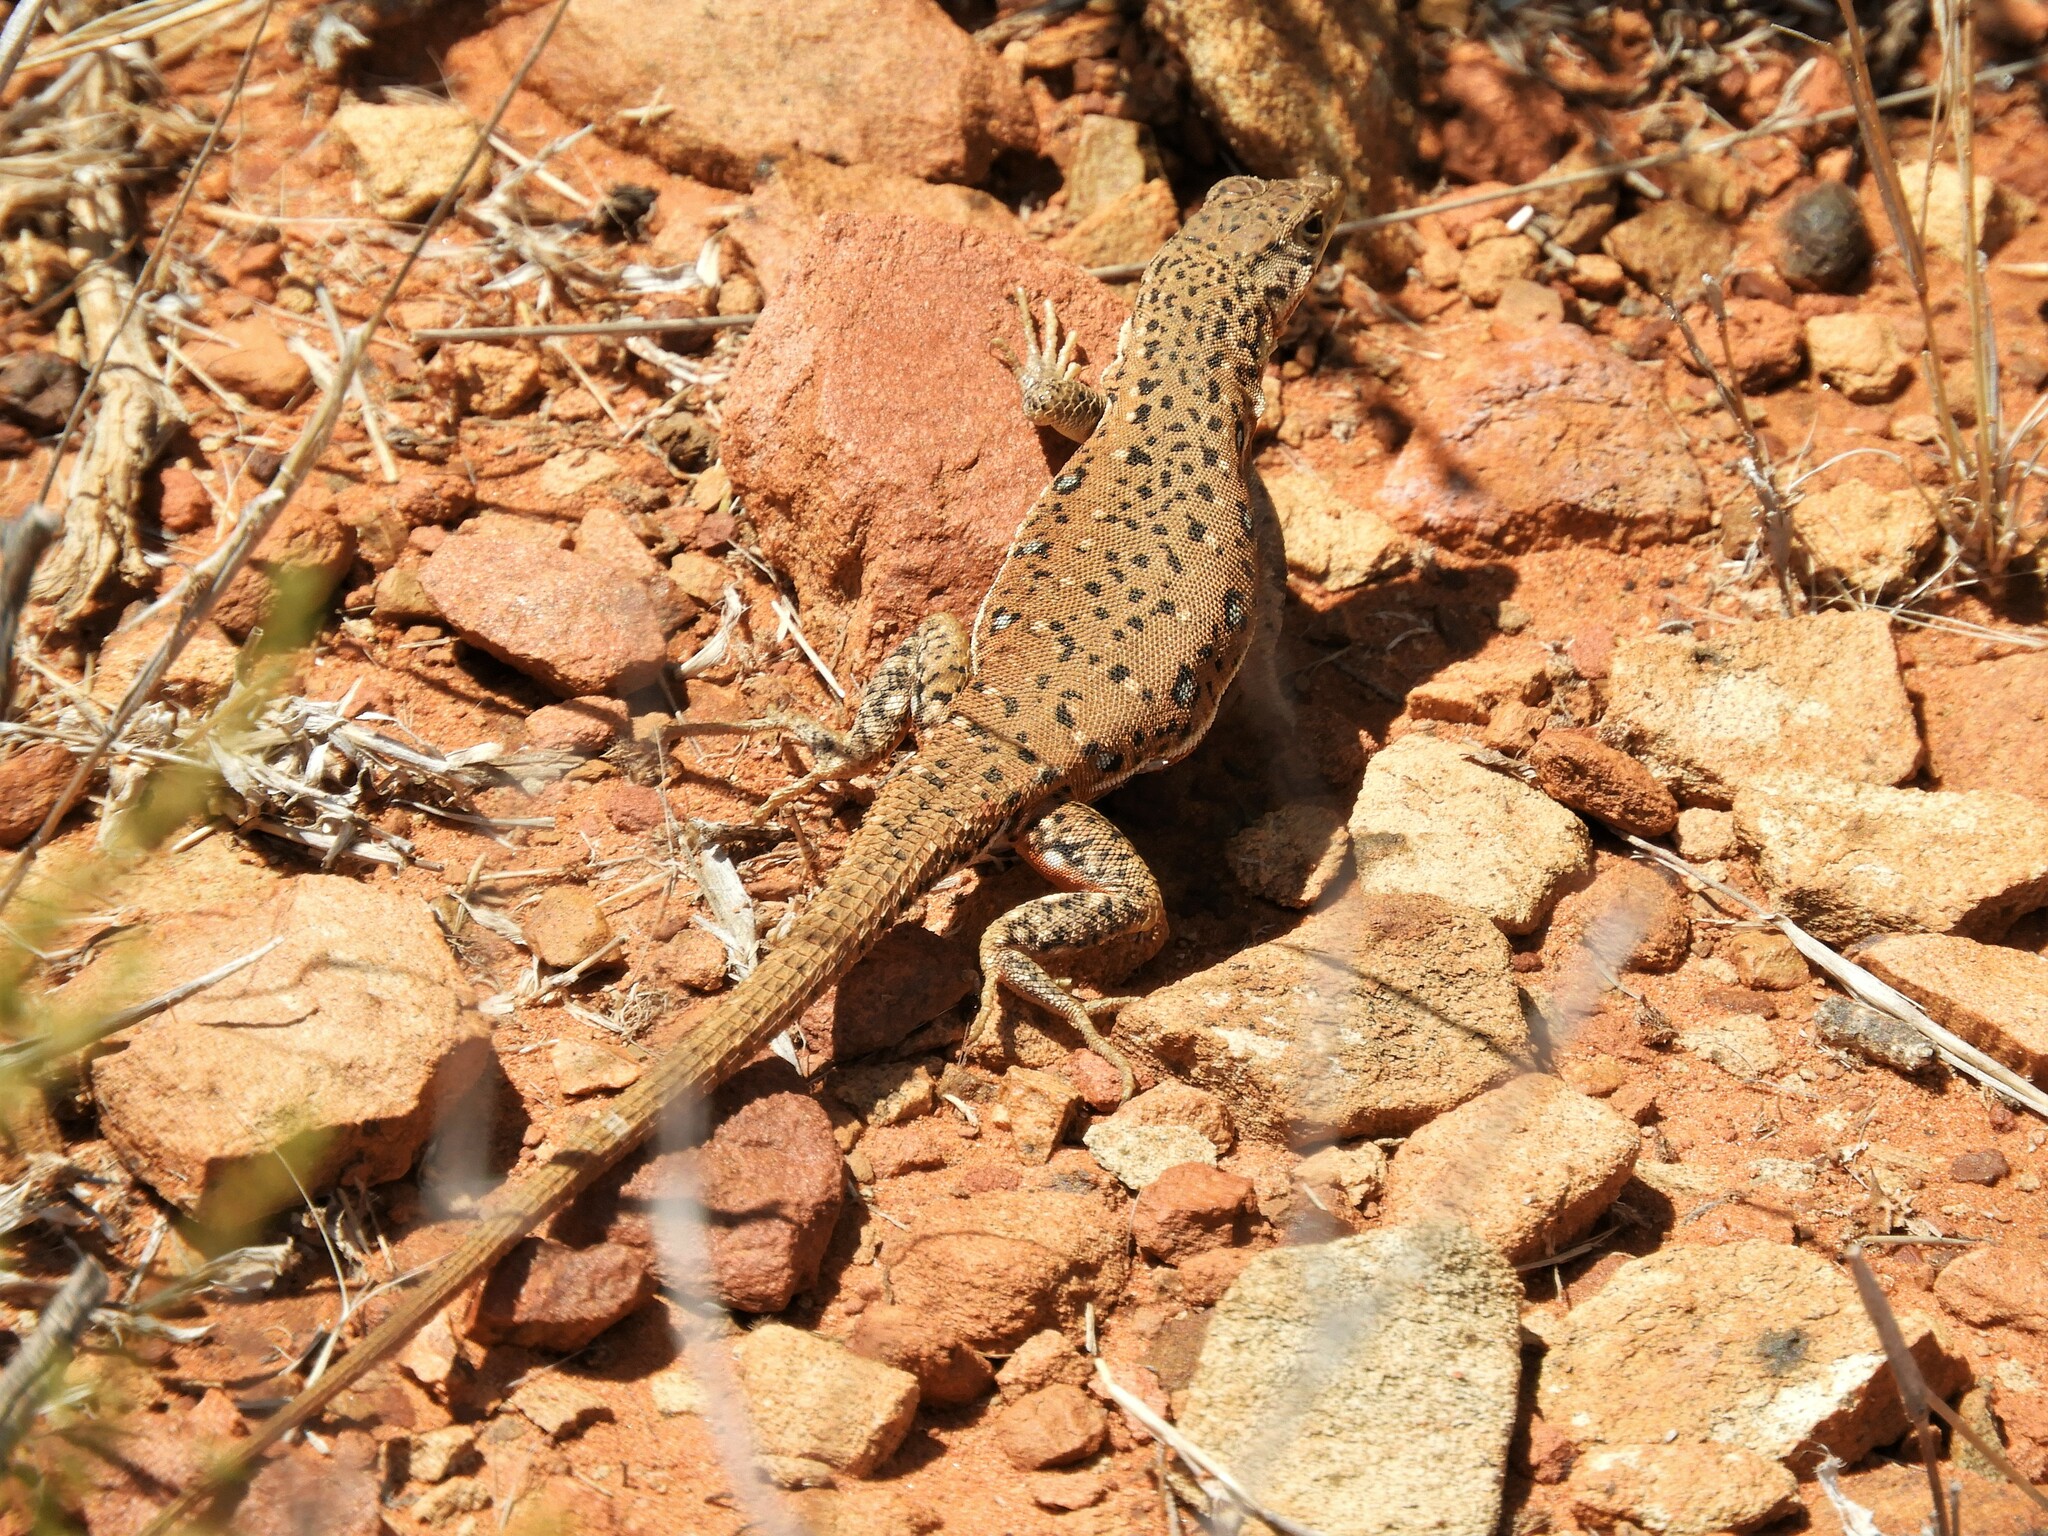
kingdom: Animalia
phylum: Chordata
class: Squamata
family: Lacertidae
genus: Pedioplanis
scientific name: Pedioplanis lineoocellata
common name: Spotted sand lizard
